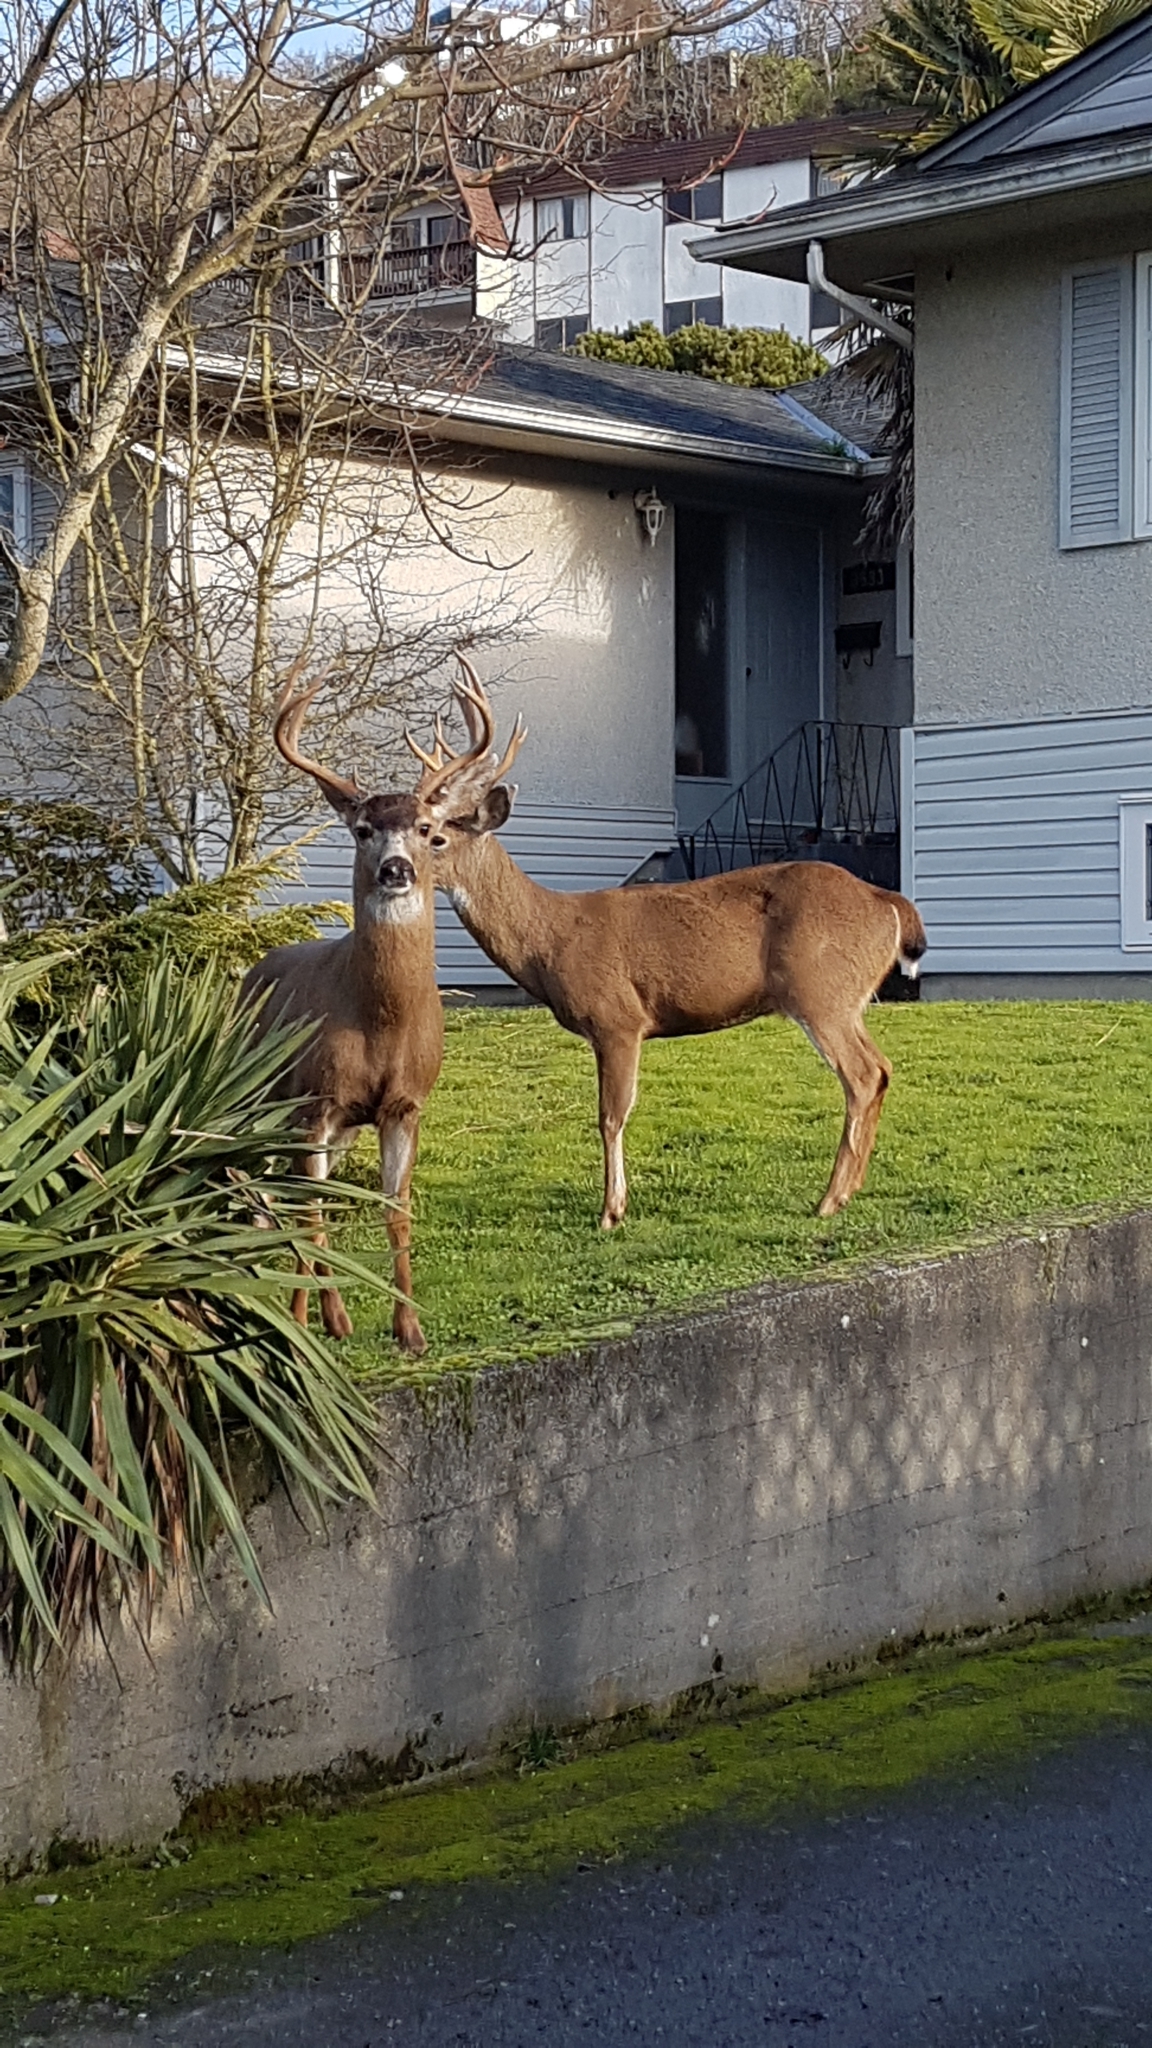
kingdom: Animalia
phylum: Chordata
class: Mammalia
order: Artiodactyla
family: Cervidae
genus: Odocoileus
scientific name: Odocoileus hemionus
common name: Mule deer
